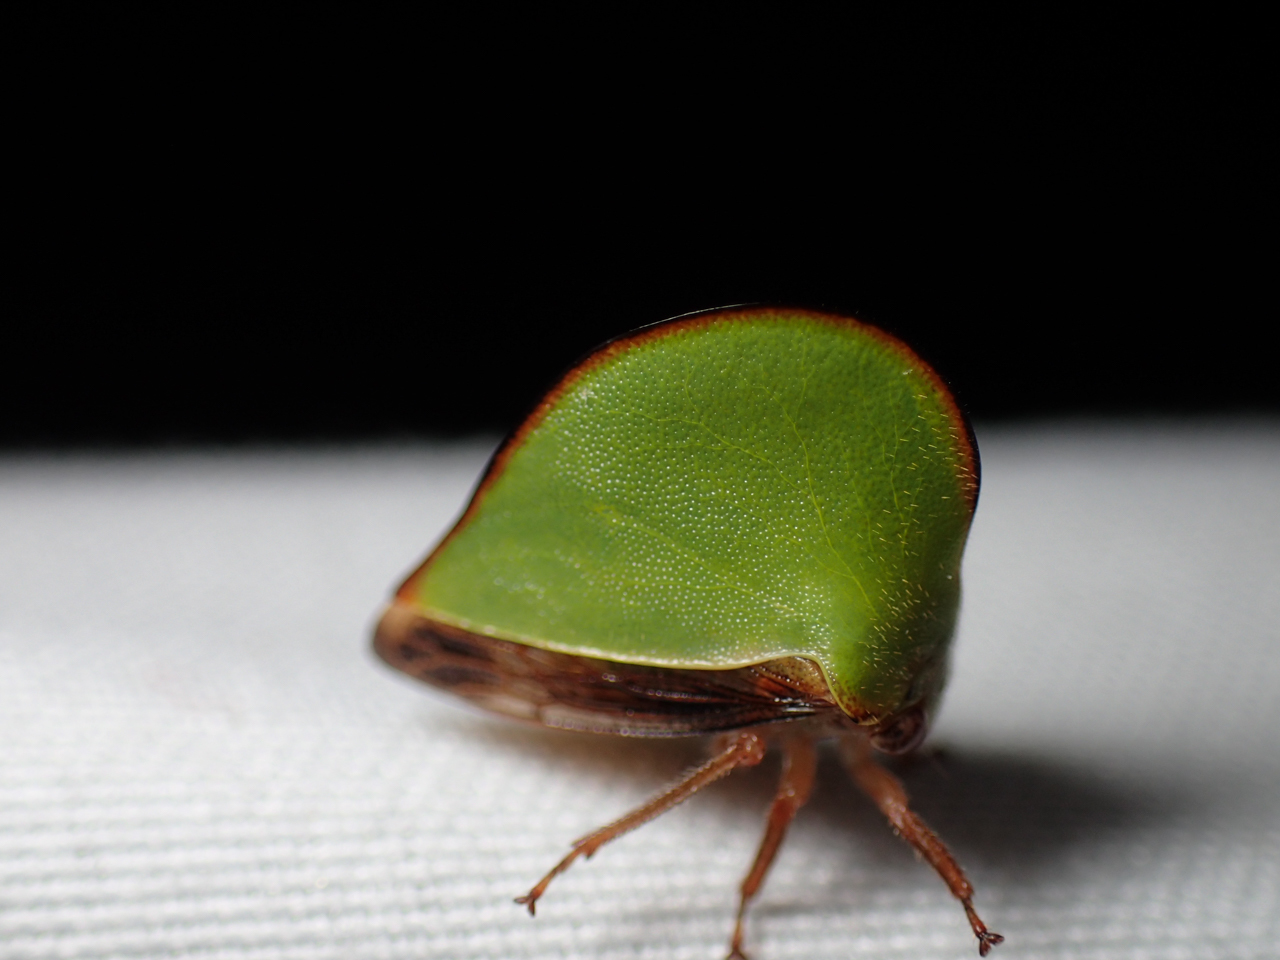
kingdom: Animalia
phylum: Arthropoda
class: Insecta
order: Hemiptera
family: Membracidae
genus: Archasia
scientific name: Archasia belfragei
